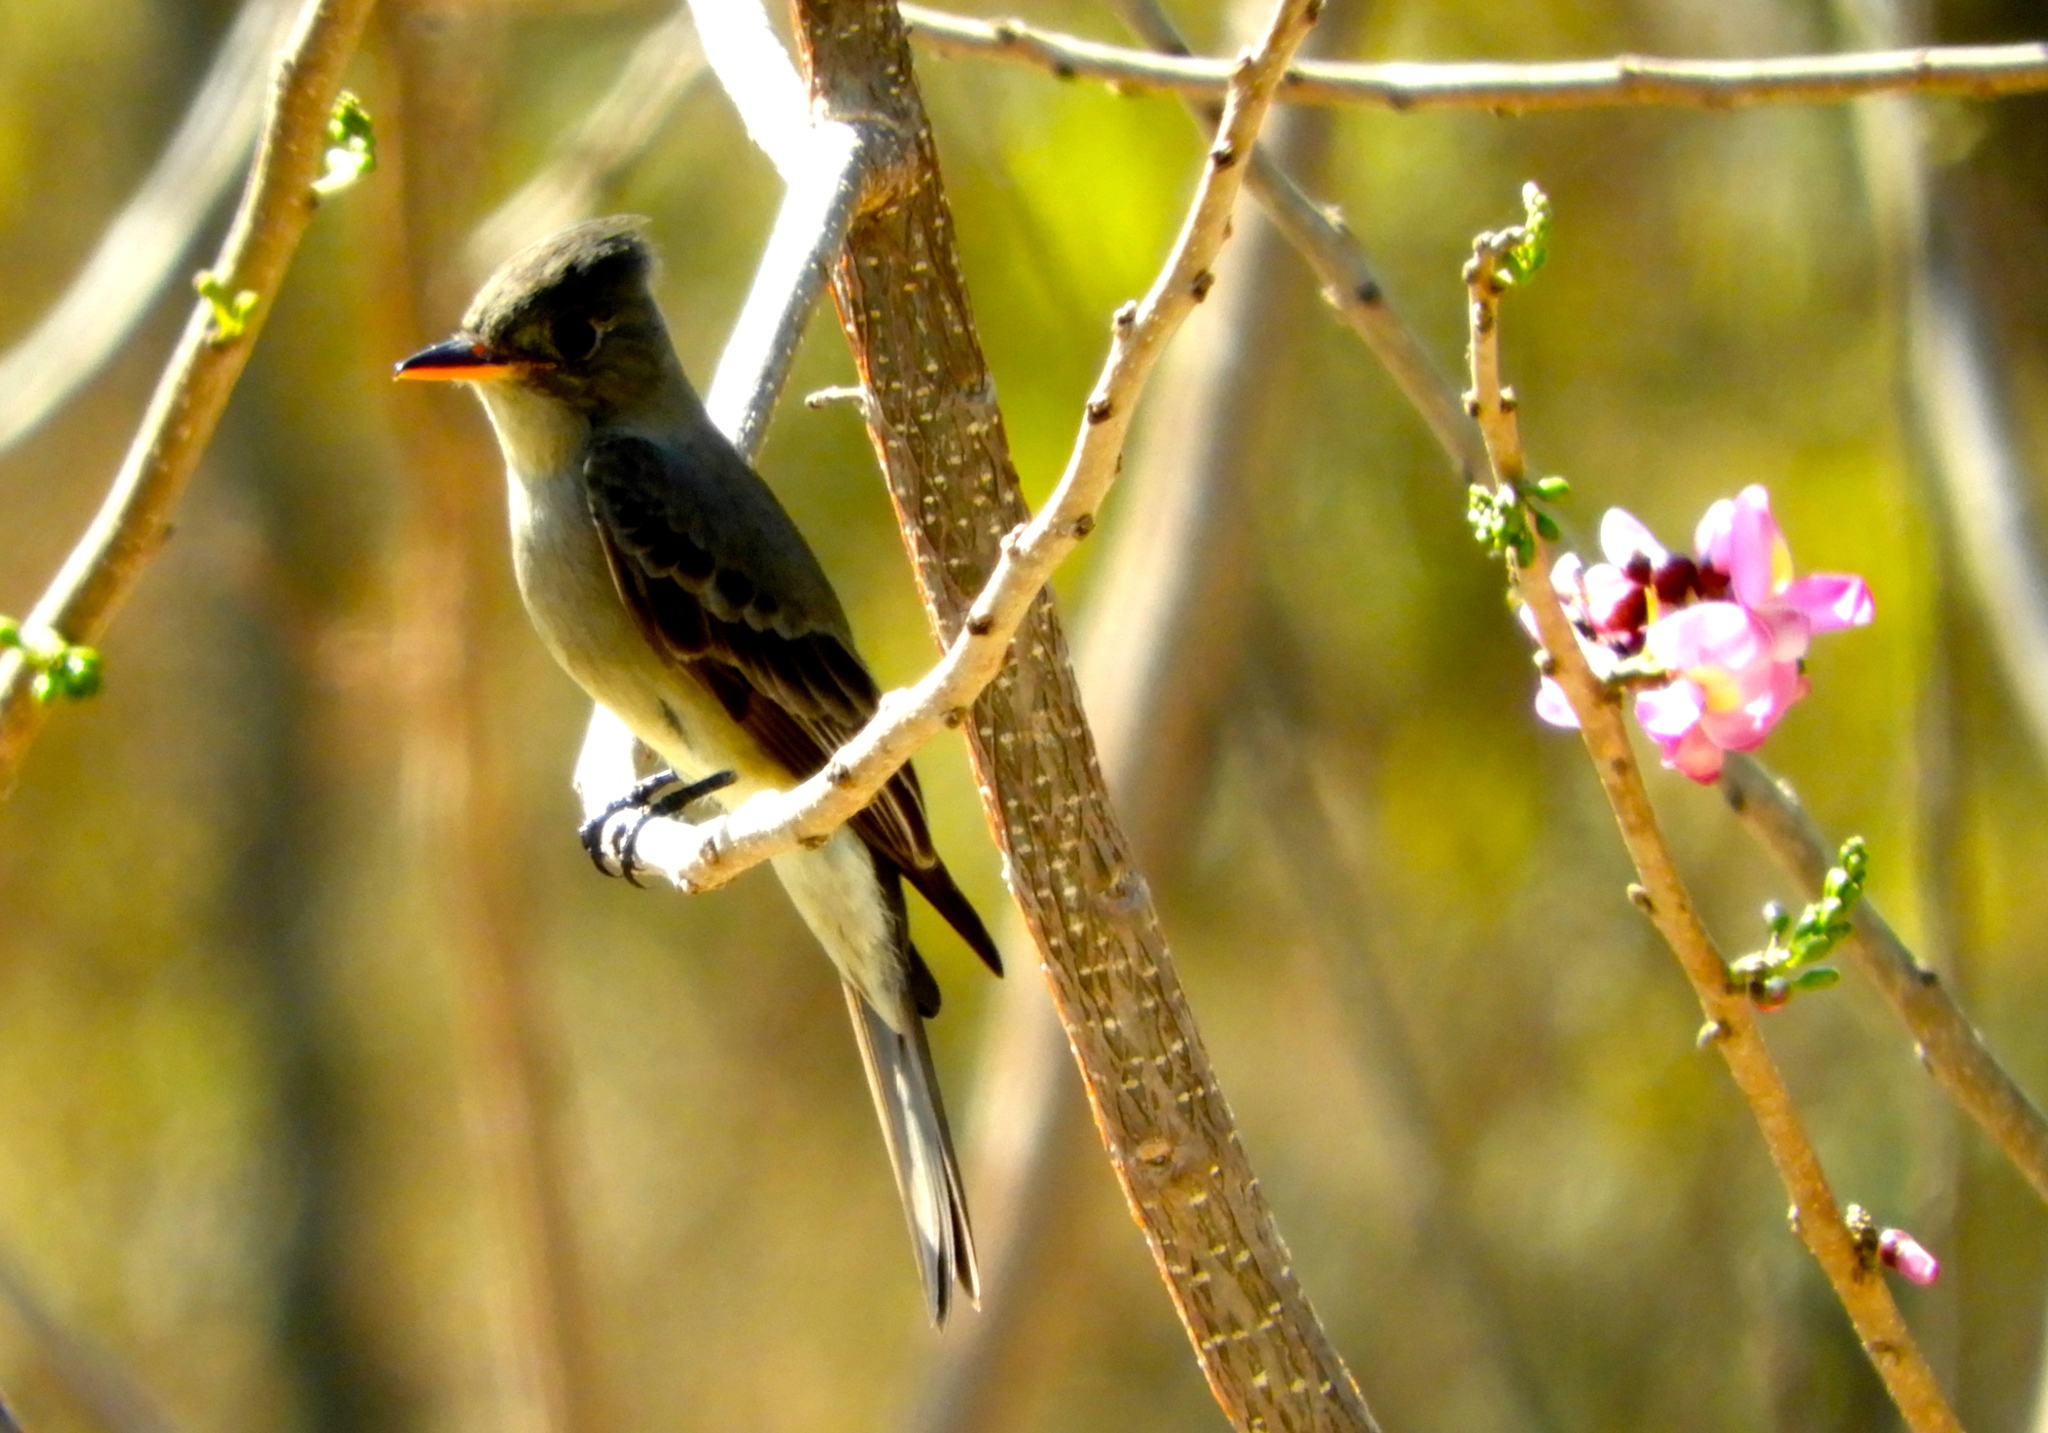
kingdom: Animalia
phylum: Chordata
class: Aves
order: Passeriformes
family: Tyrannidae
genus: Contopus
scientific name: Contopus pertinax
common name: Greater pewee
